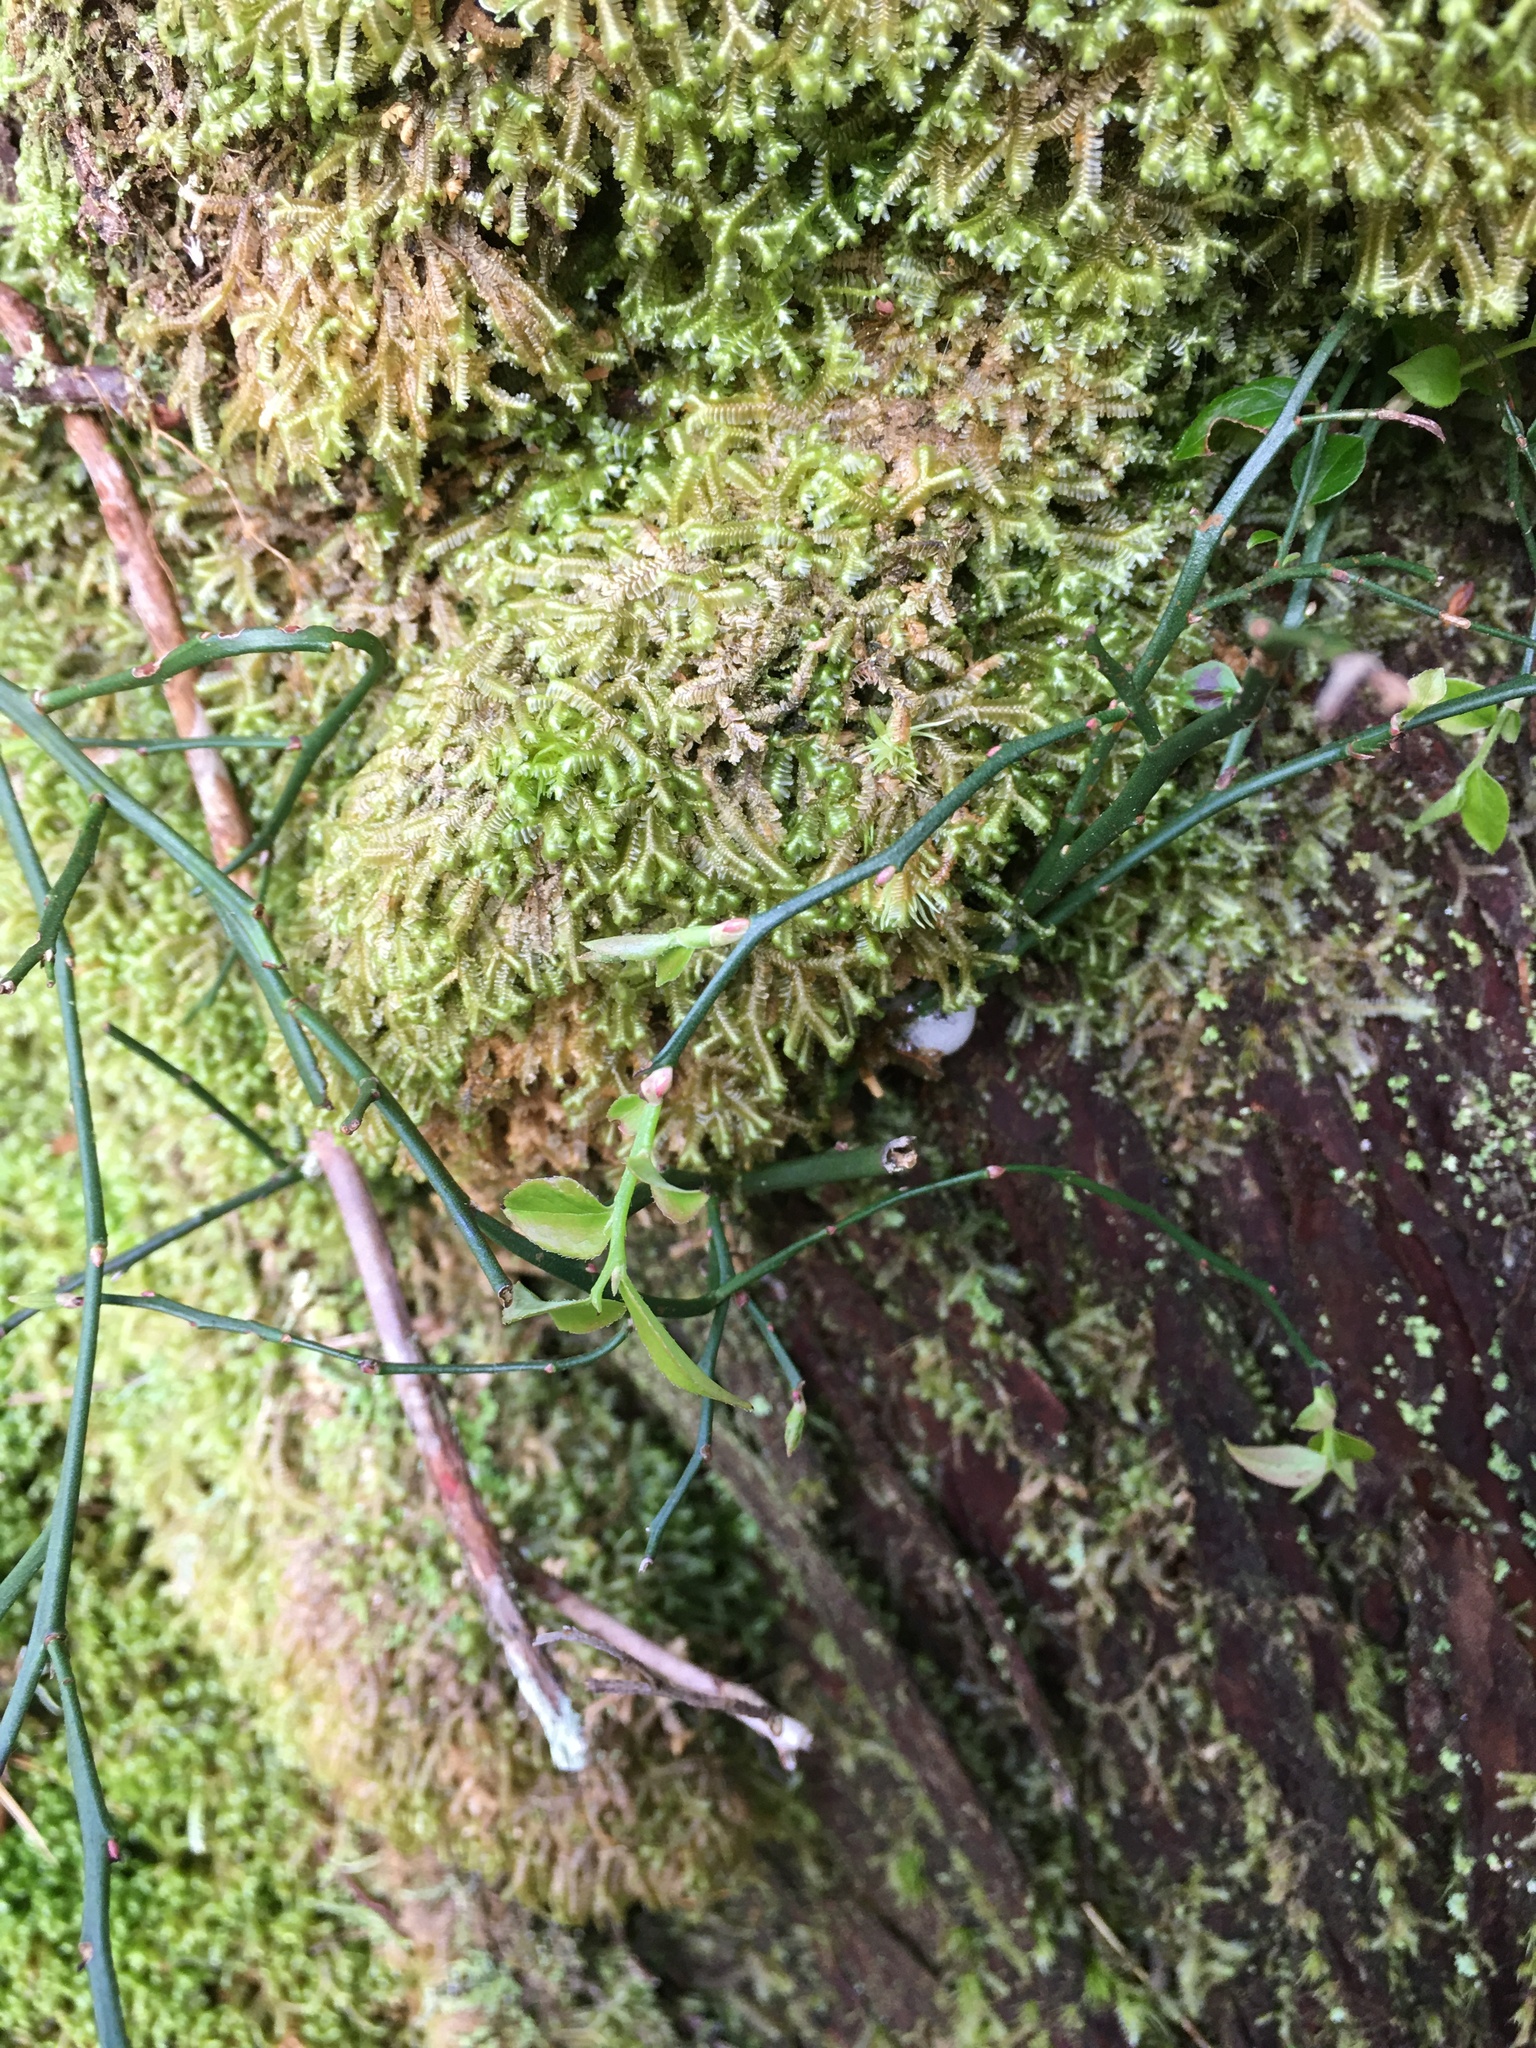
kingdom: Plantae
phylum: Tracheophyta
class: Magnoliopsida
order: Ericales
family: Ericaceae
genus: Vaccinium
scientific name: Vaccinium japonicum
